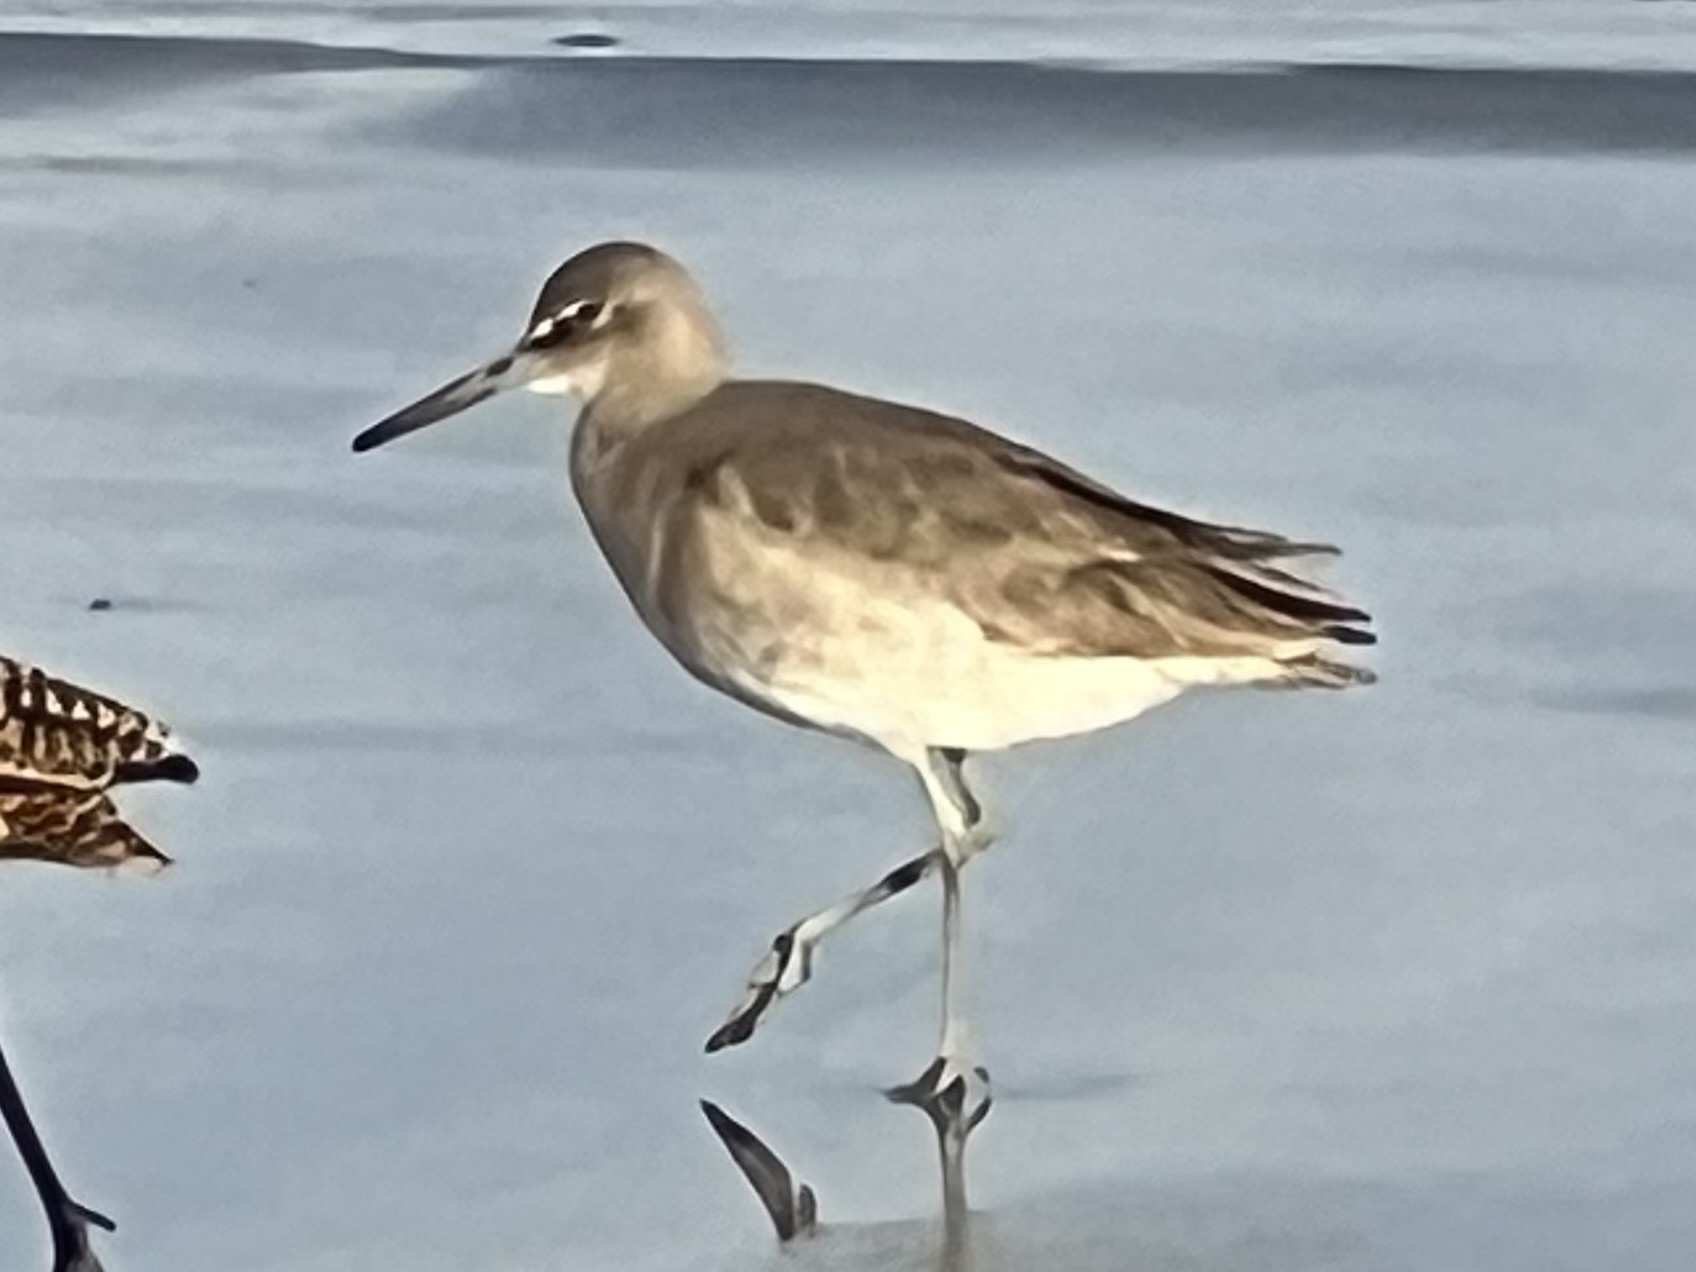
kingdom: Animalia
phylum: Chordata
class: Aves
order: Charadriiformes
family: Scolopacidae
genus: Tringa
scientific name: Tringa semipalmata
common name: Willet
